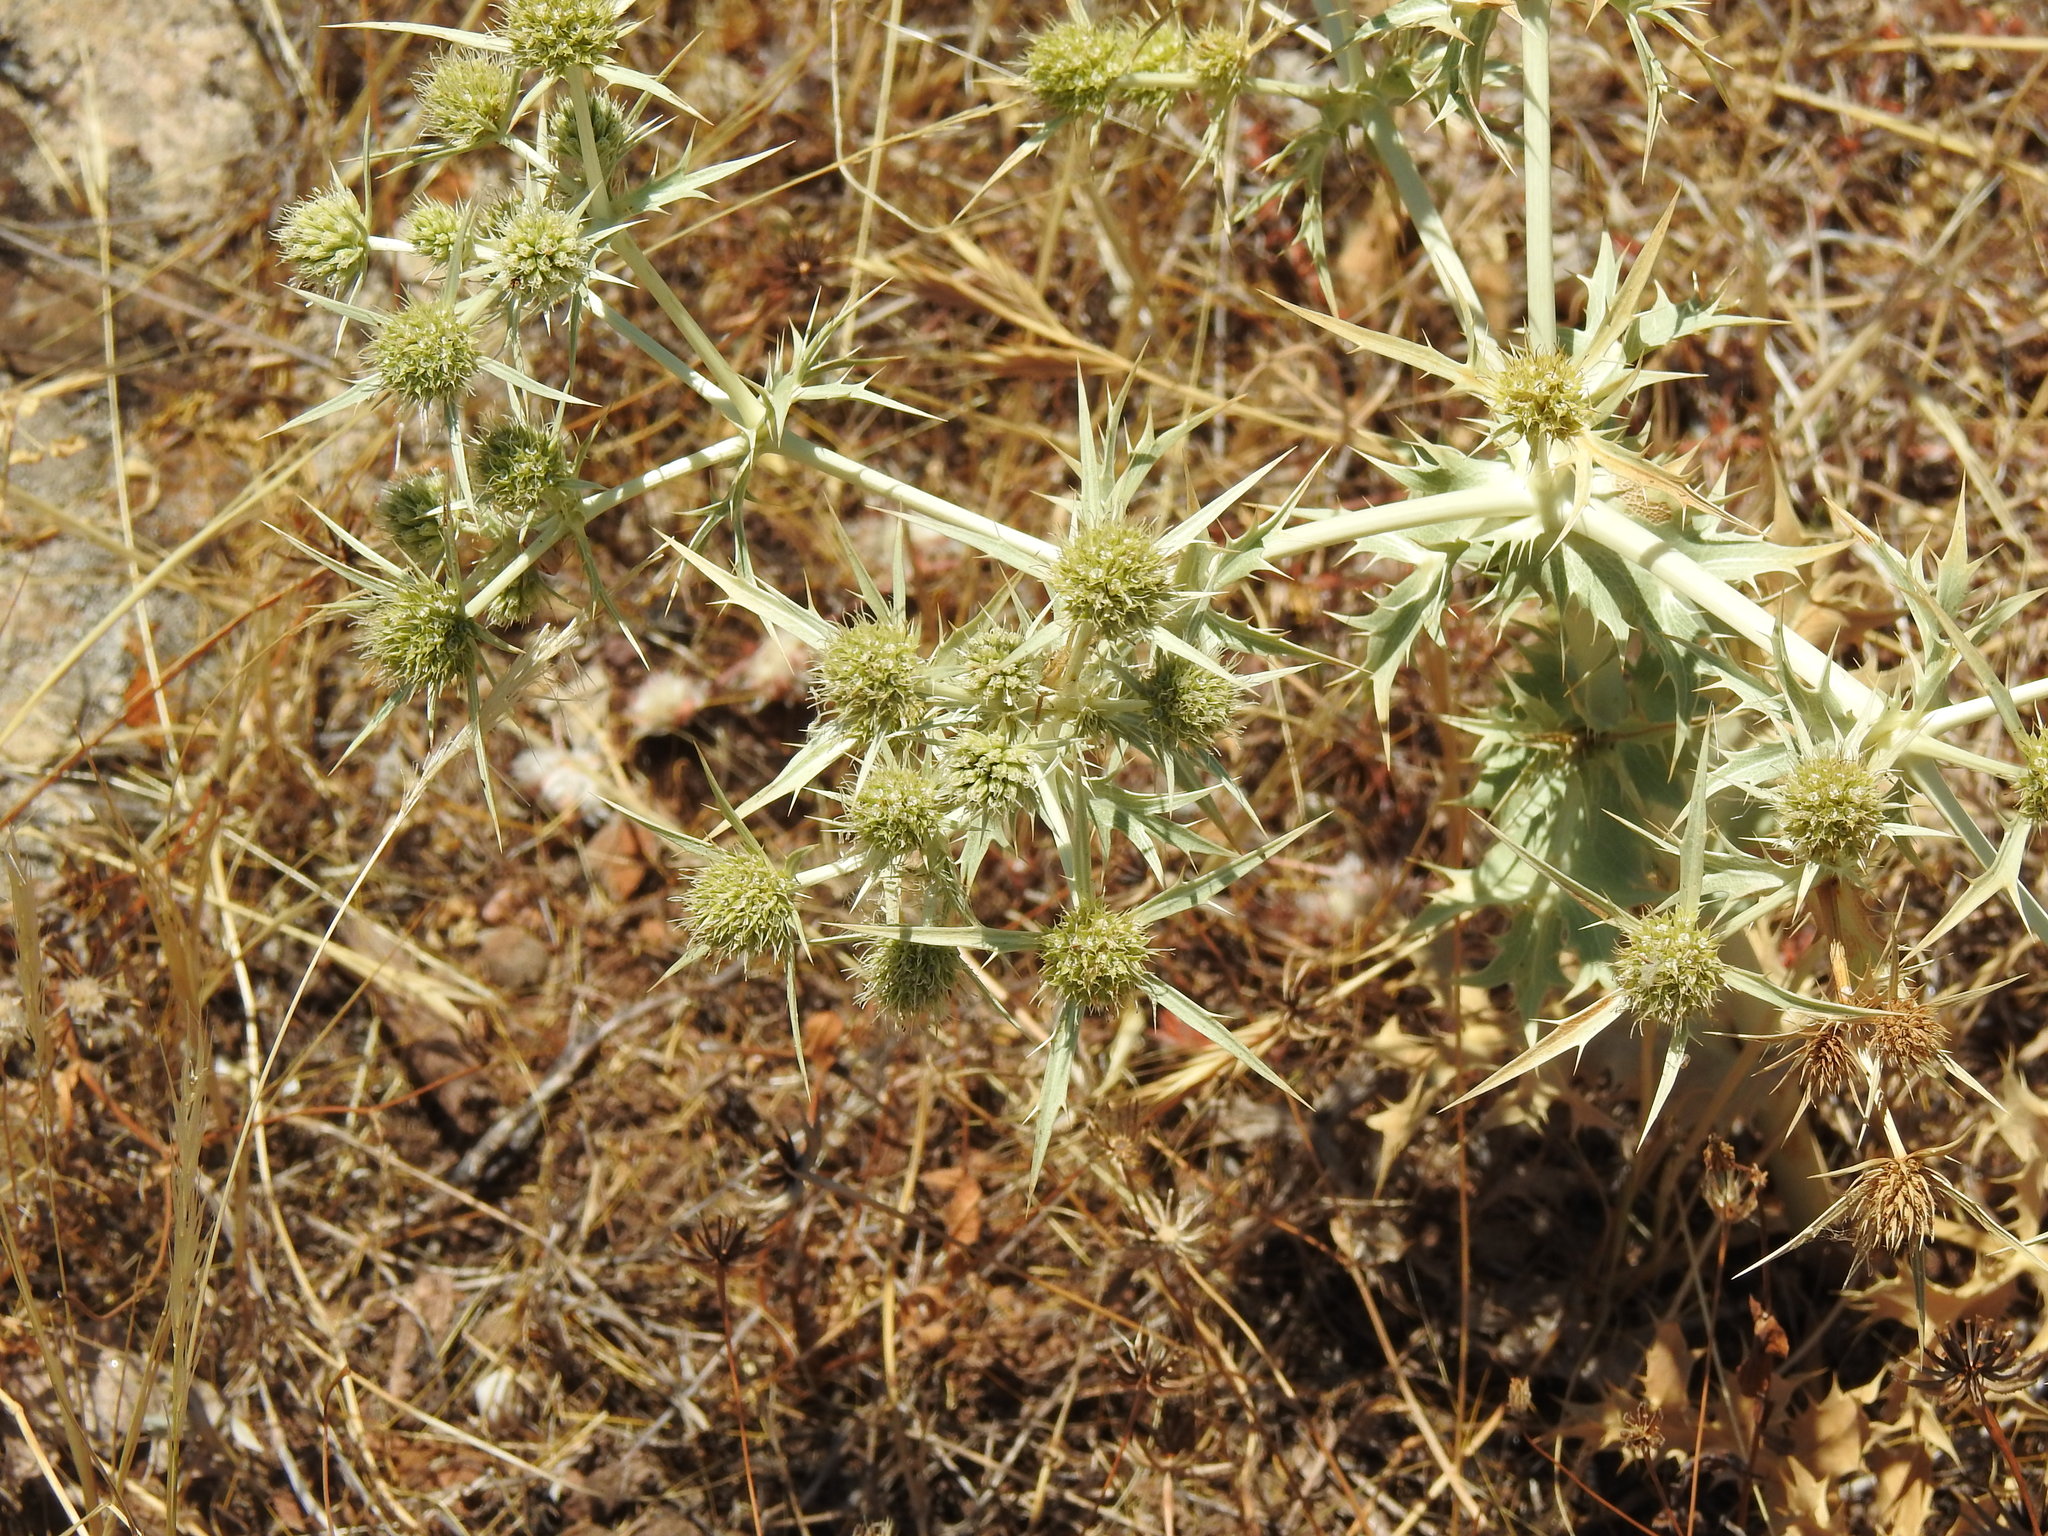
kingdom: Plantae
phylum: Tracheophyta
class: Magnoliopsida
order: Apiales
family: Apiaceae
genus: Eryngium
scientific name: Eryngium campestre
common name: Field eryngo
